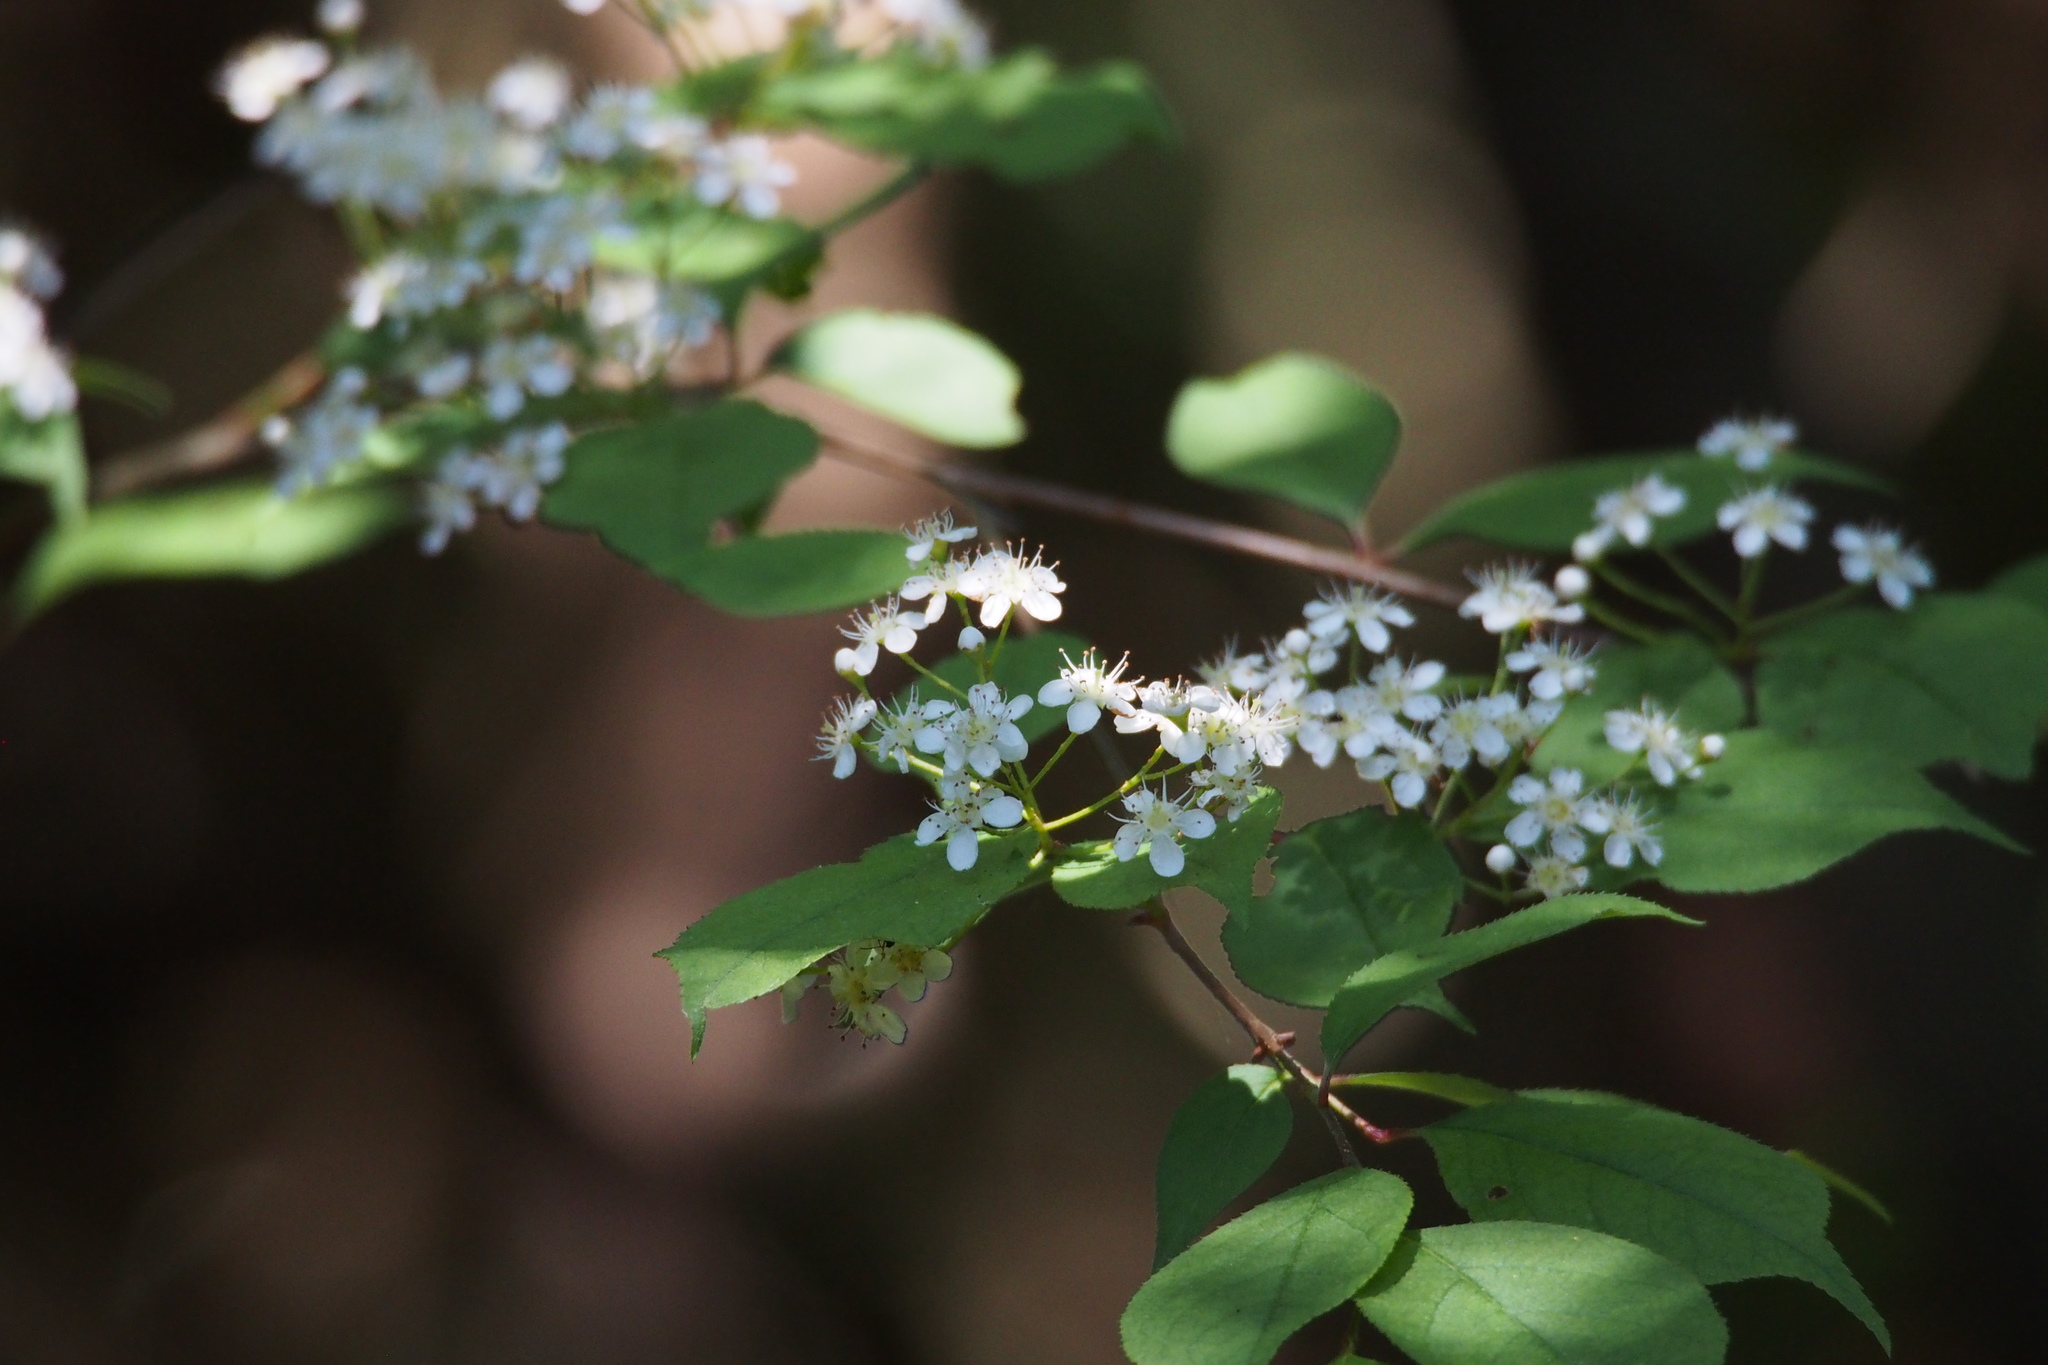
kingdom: Plantae
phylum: Tracheophyta
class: Magnoliopsida
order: Rosales
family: Rosaceae
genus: Pourthiaea
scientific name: Pourthiaea villosa
